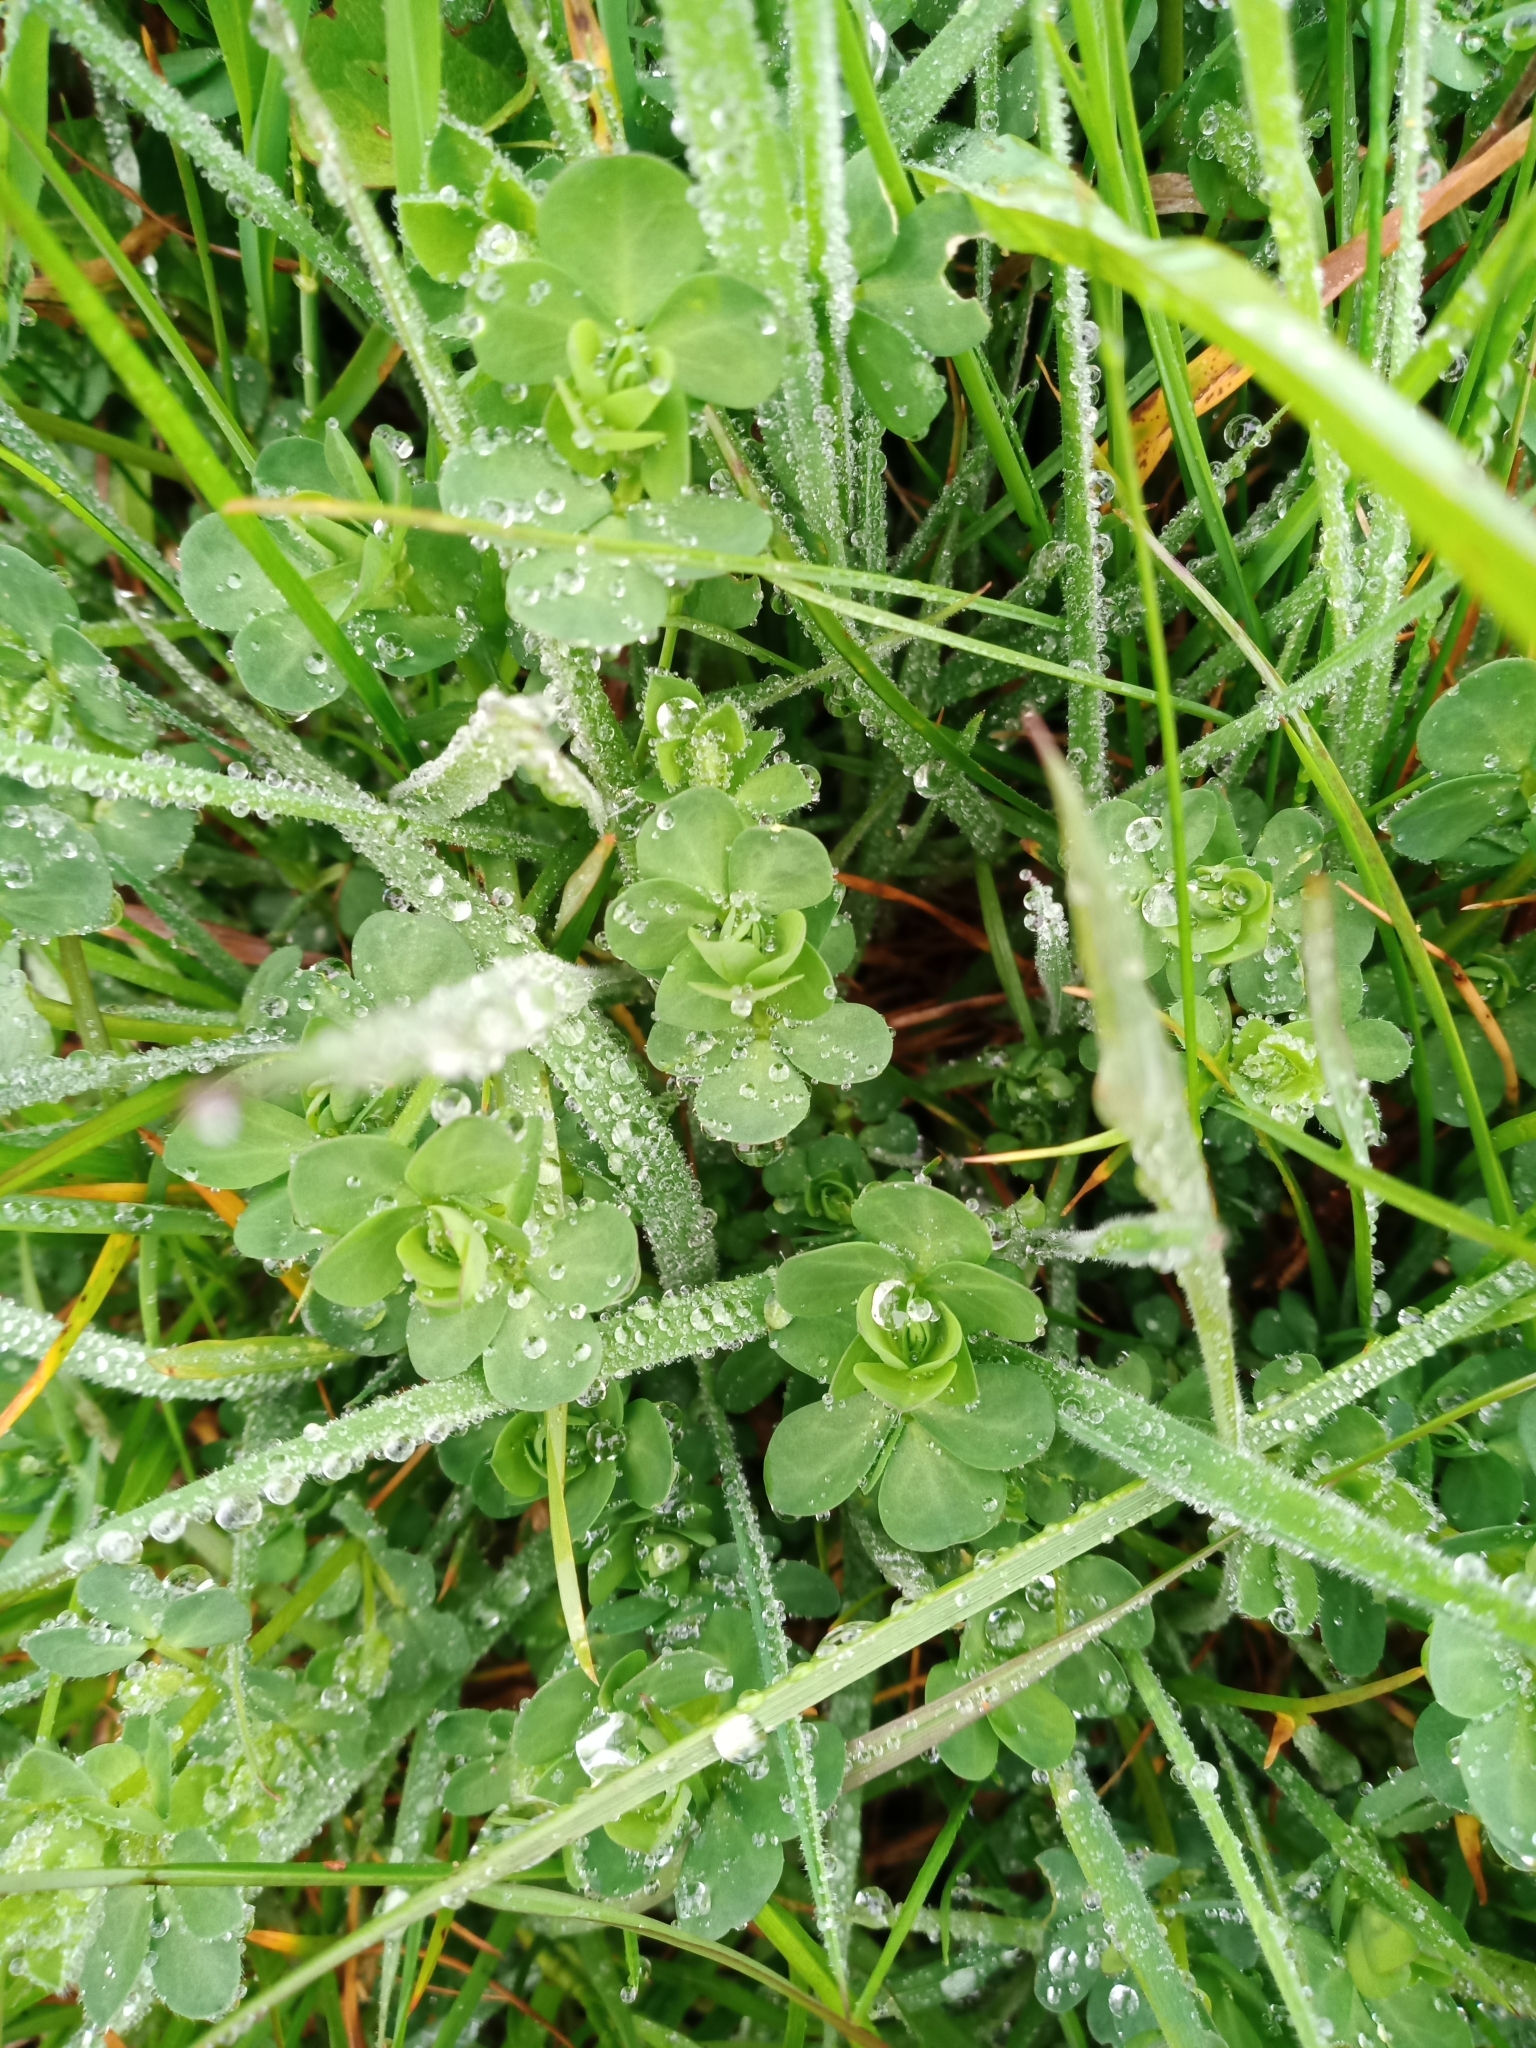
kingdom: Plantae
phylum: Tracheophyta
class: Magnoliopsida
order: Fabales
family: Fabaceae
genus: Lotus
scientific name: Lotus corniculatus
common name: Common bird's-foot-trefoil
